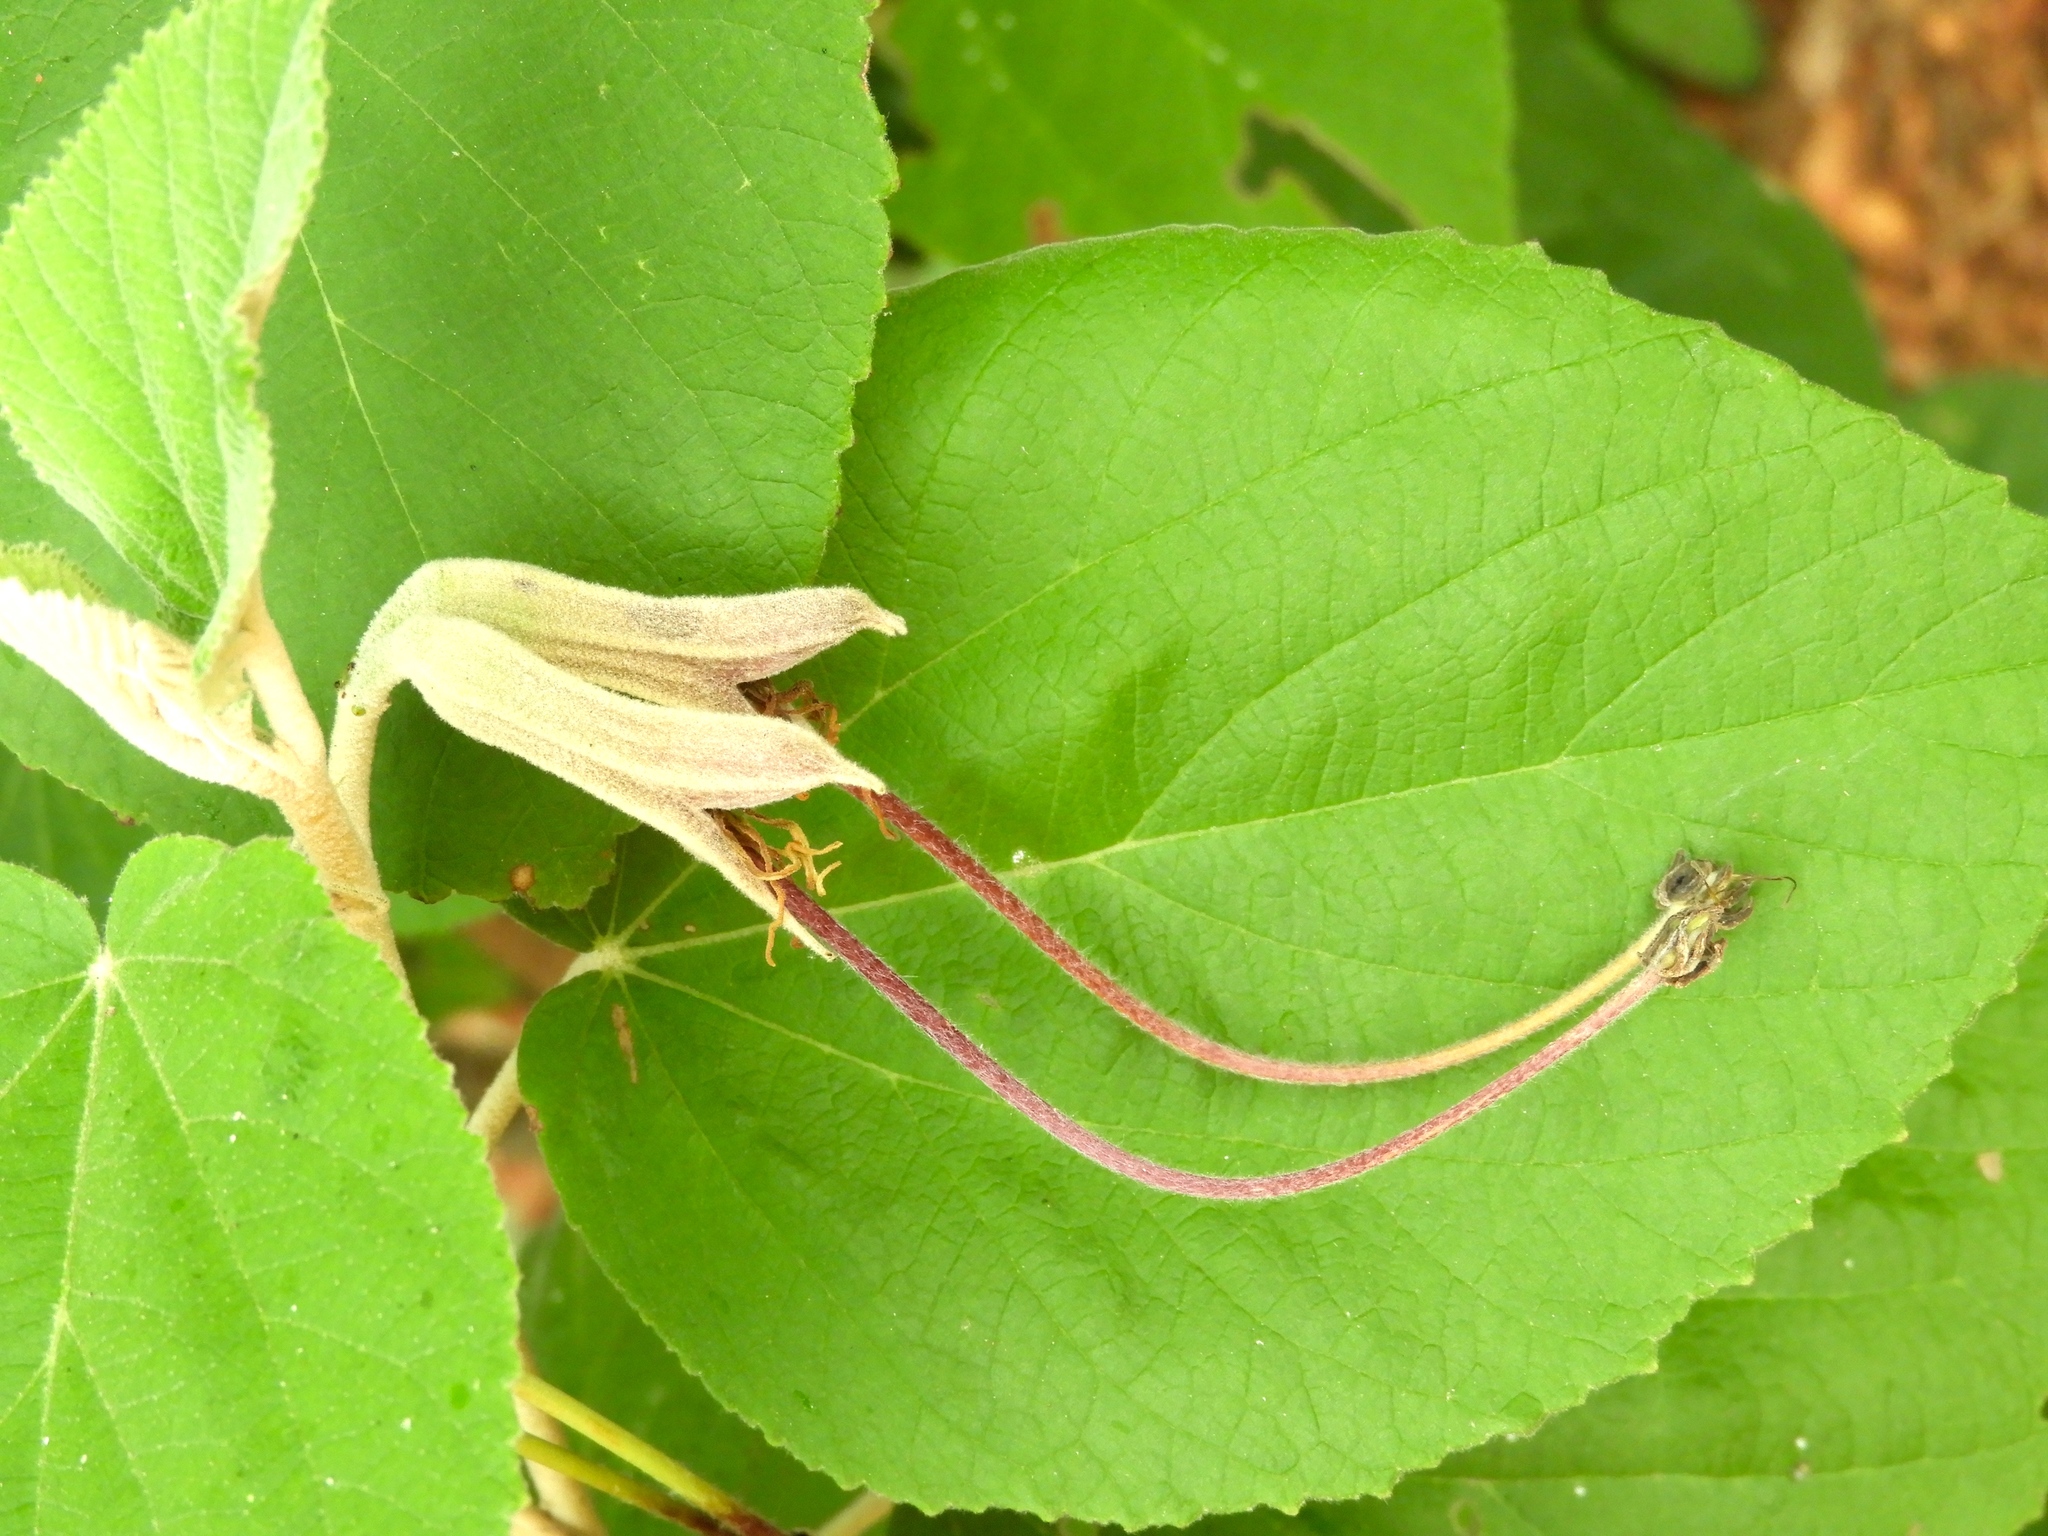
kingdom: Plantae
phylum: Tracheophyta
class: Magnoliopsida
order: Malvales
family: Malvaceae
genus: Helicteres
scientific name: Helicteres baruensis
